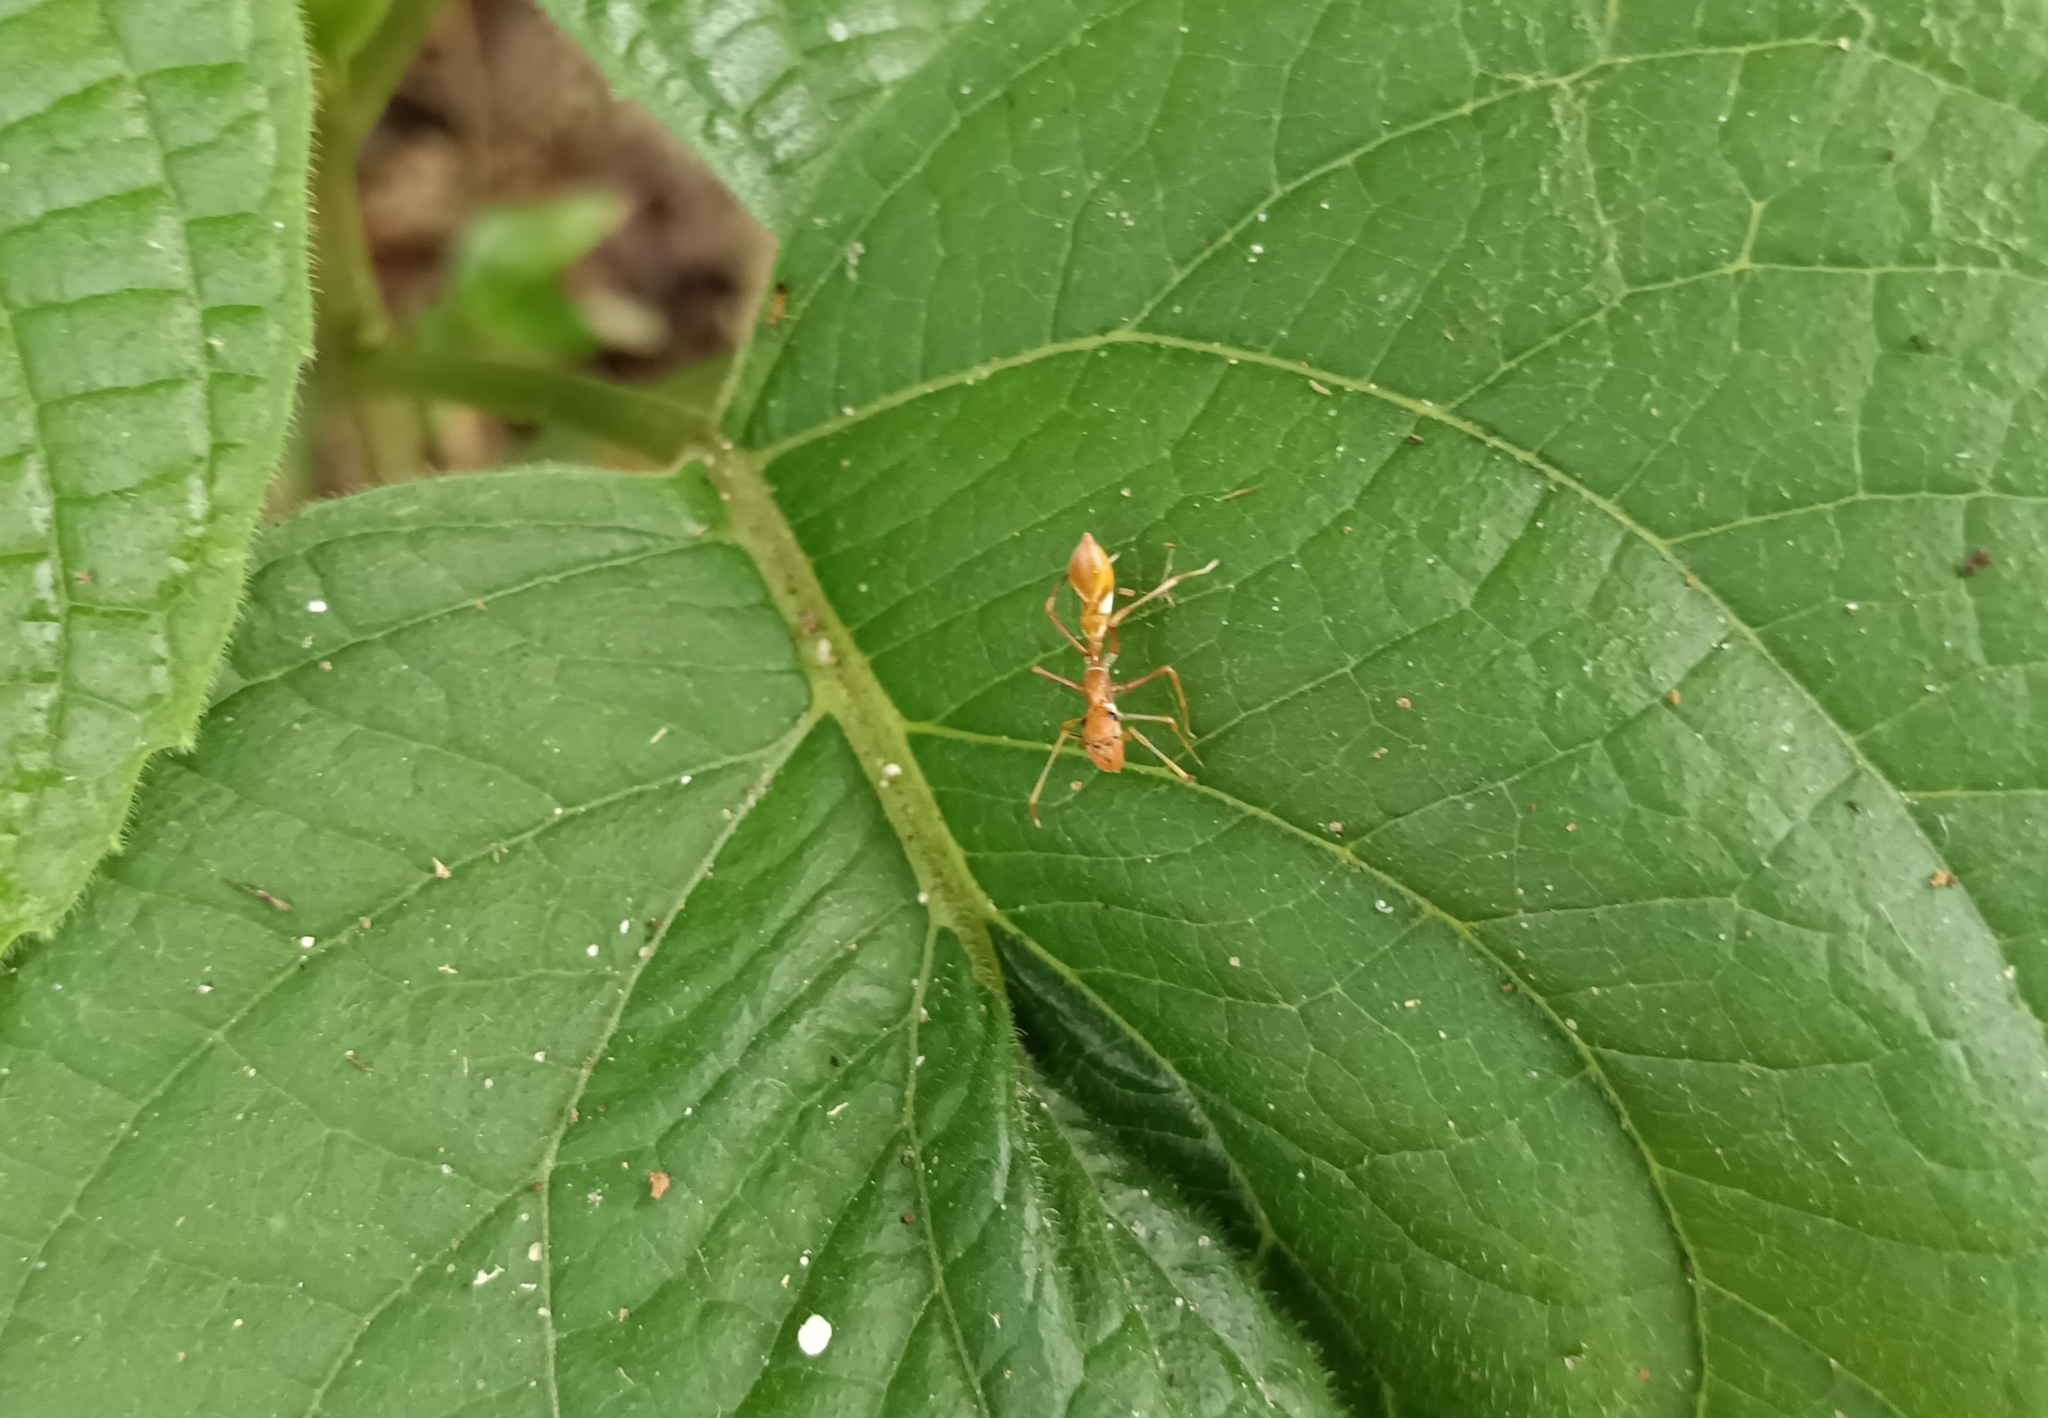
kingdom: Animalia
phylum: Arthropoda
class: Arachnida
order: Araneae
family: Salticidae
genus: Myrmaplata
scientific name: Myrmaplata plataleoides
